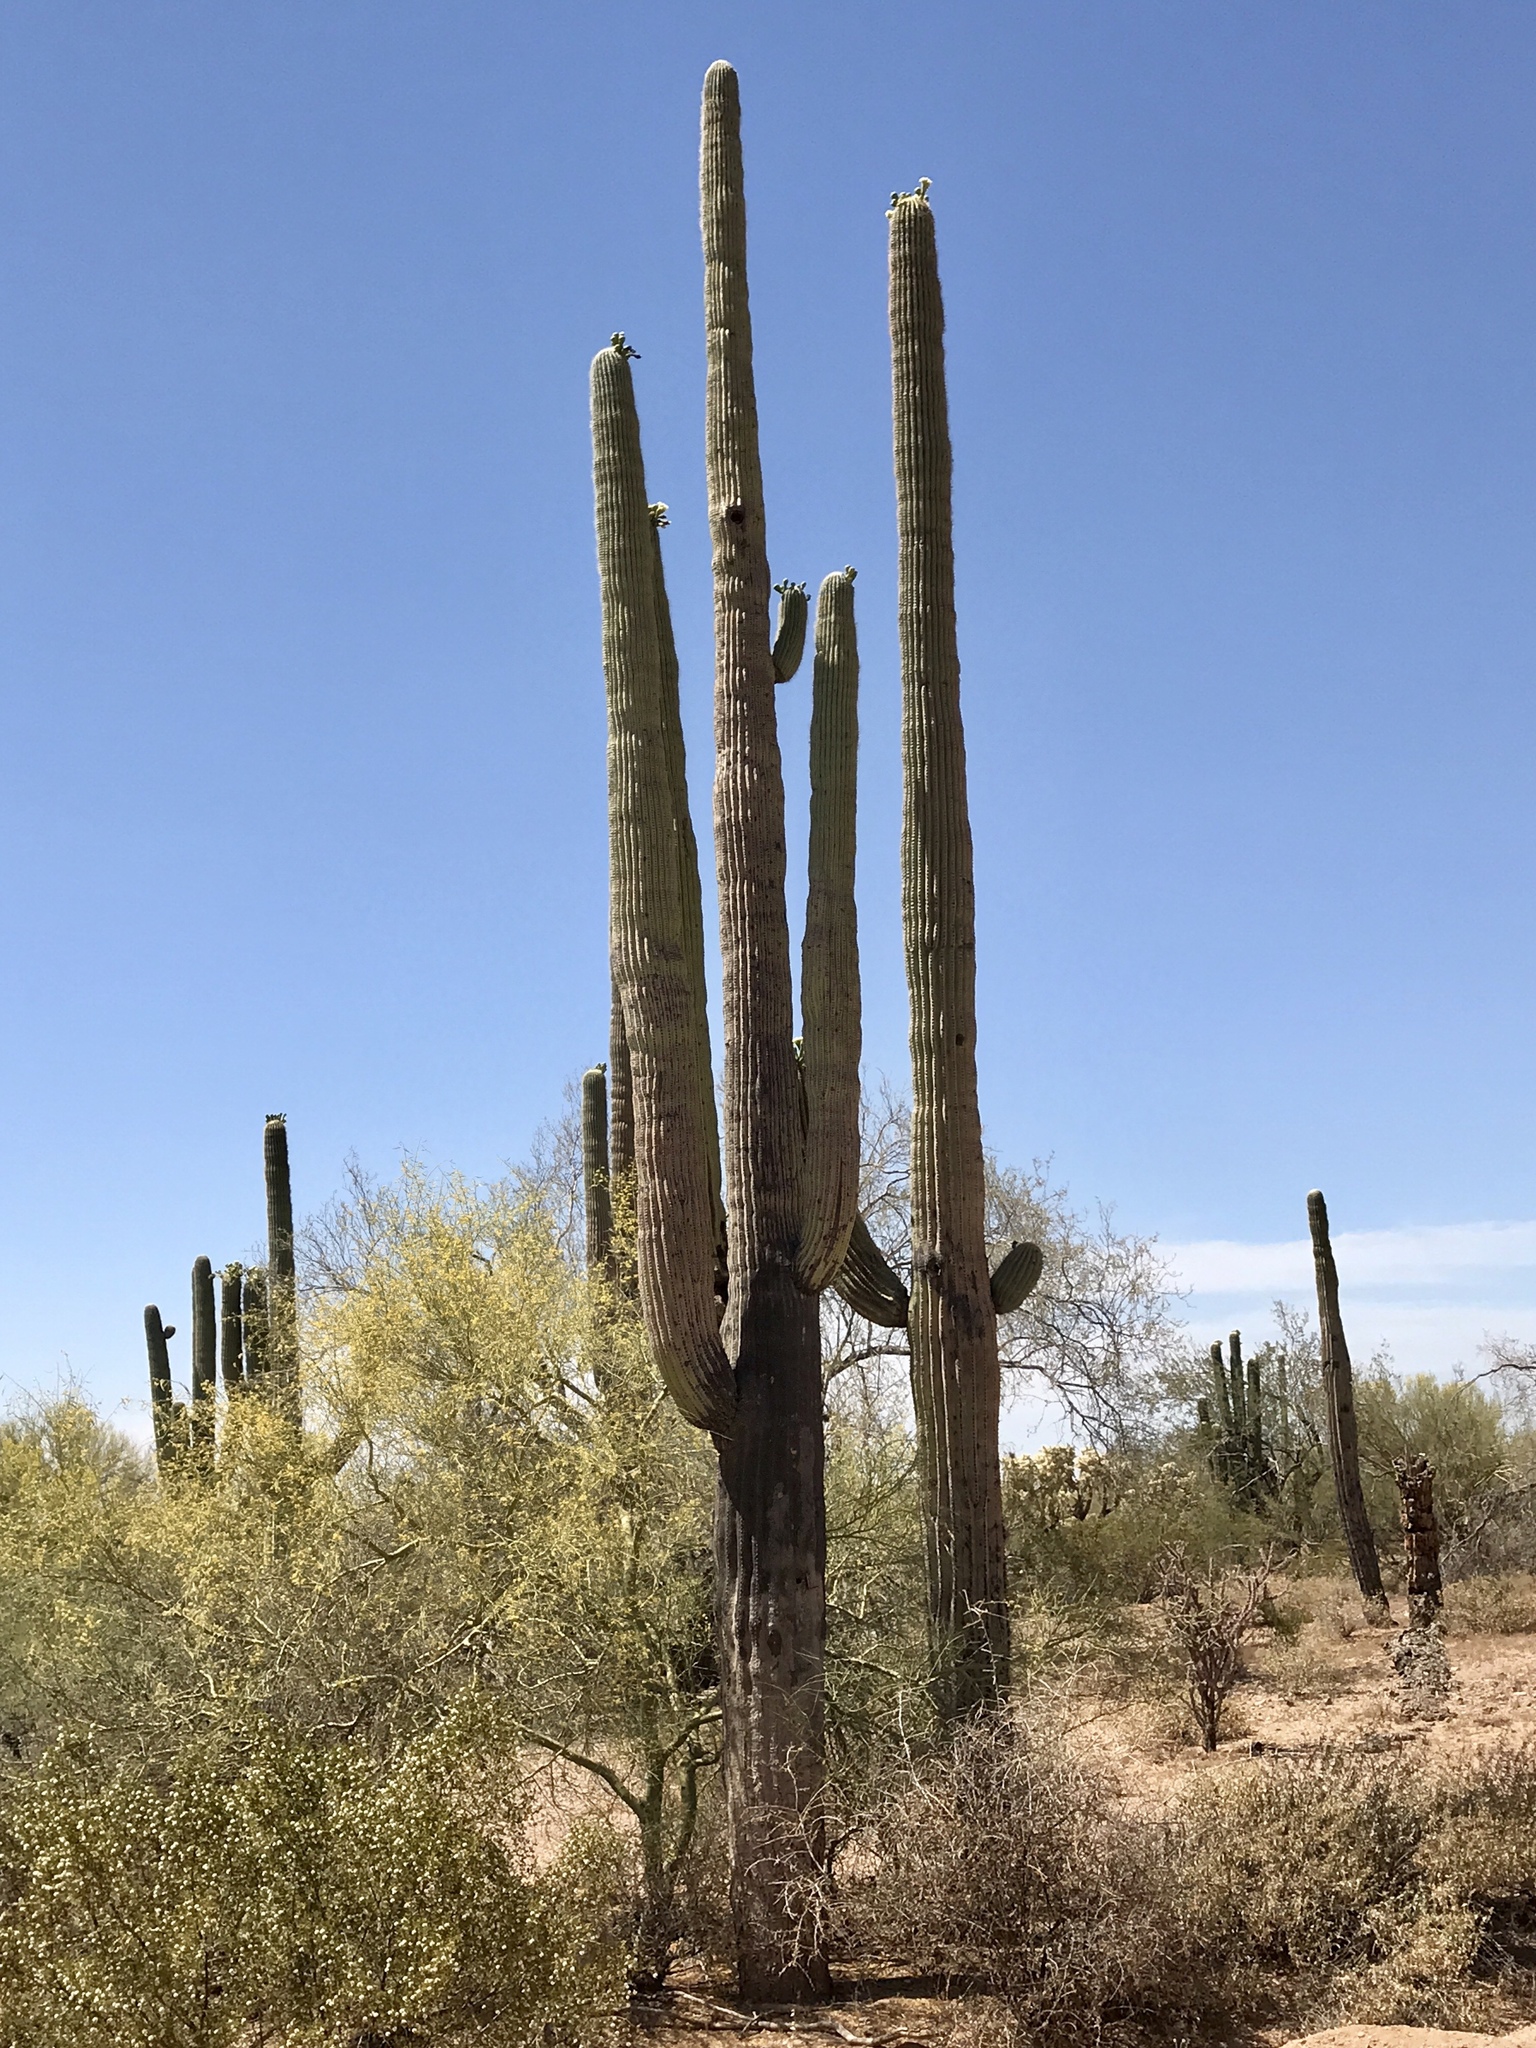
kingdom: Plantae
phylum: Tracheophyta
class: Magnoliopsida
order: Caryophyllales
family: Cactaceae
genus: Carnegiea
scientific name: Carnegiea gigantea
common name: Saguaro
